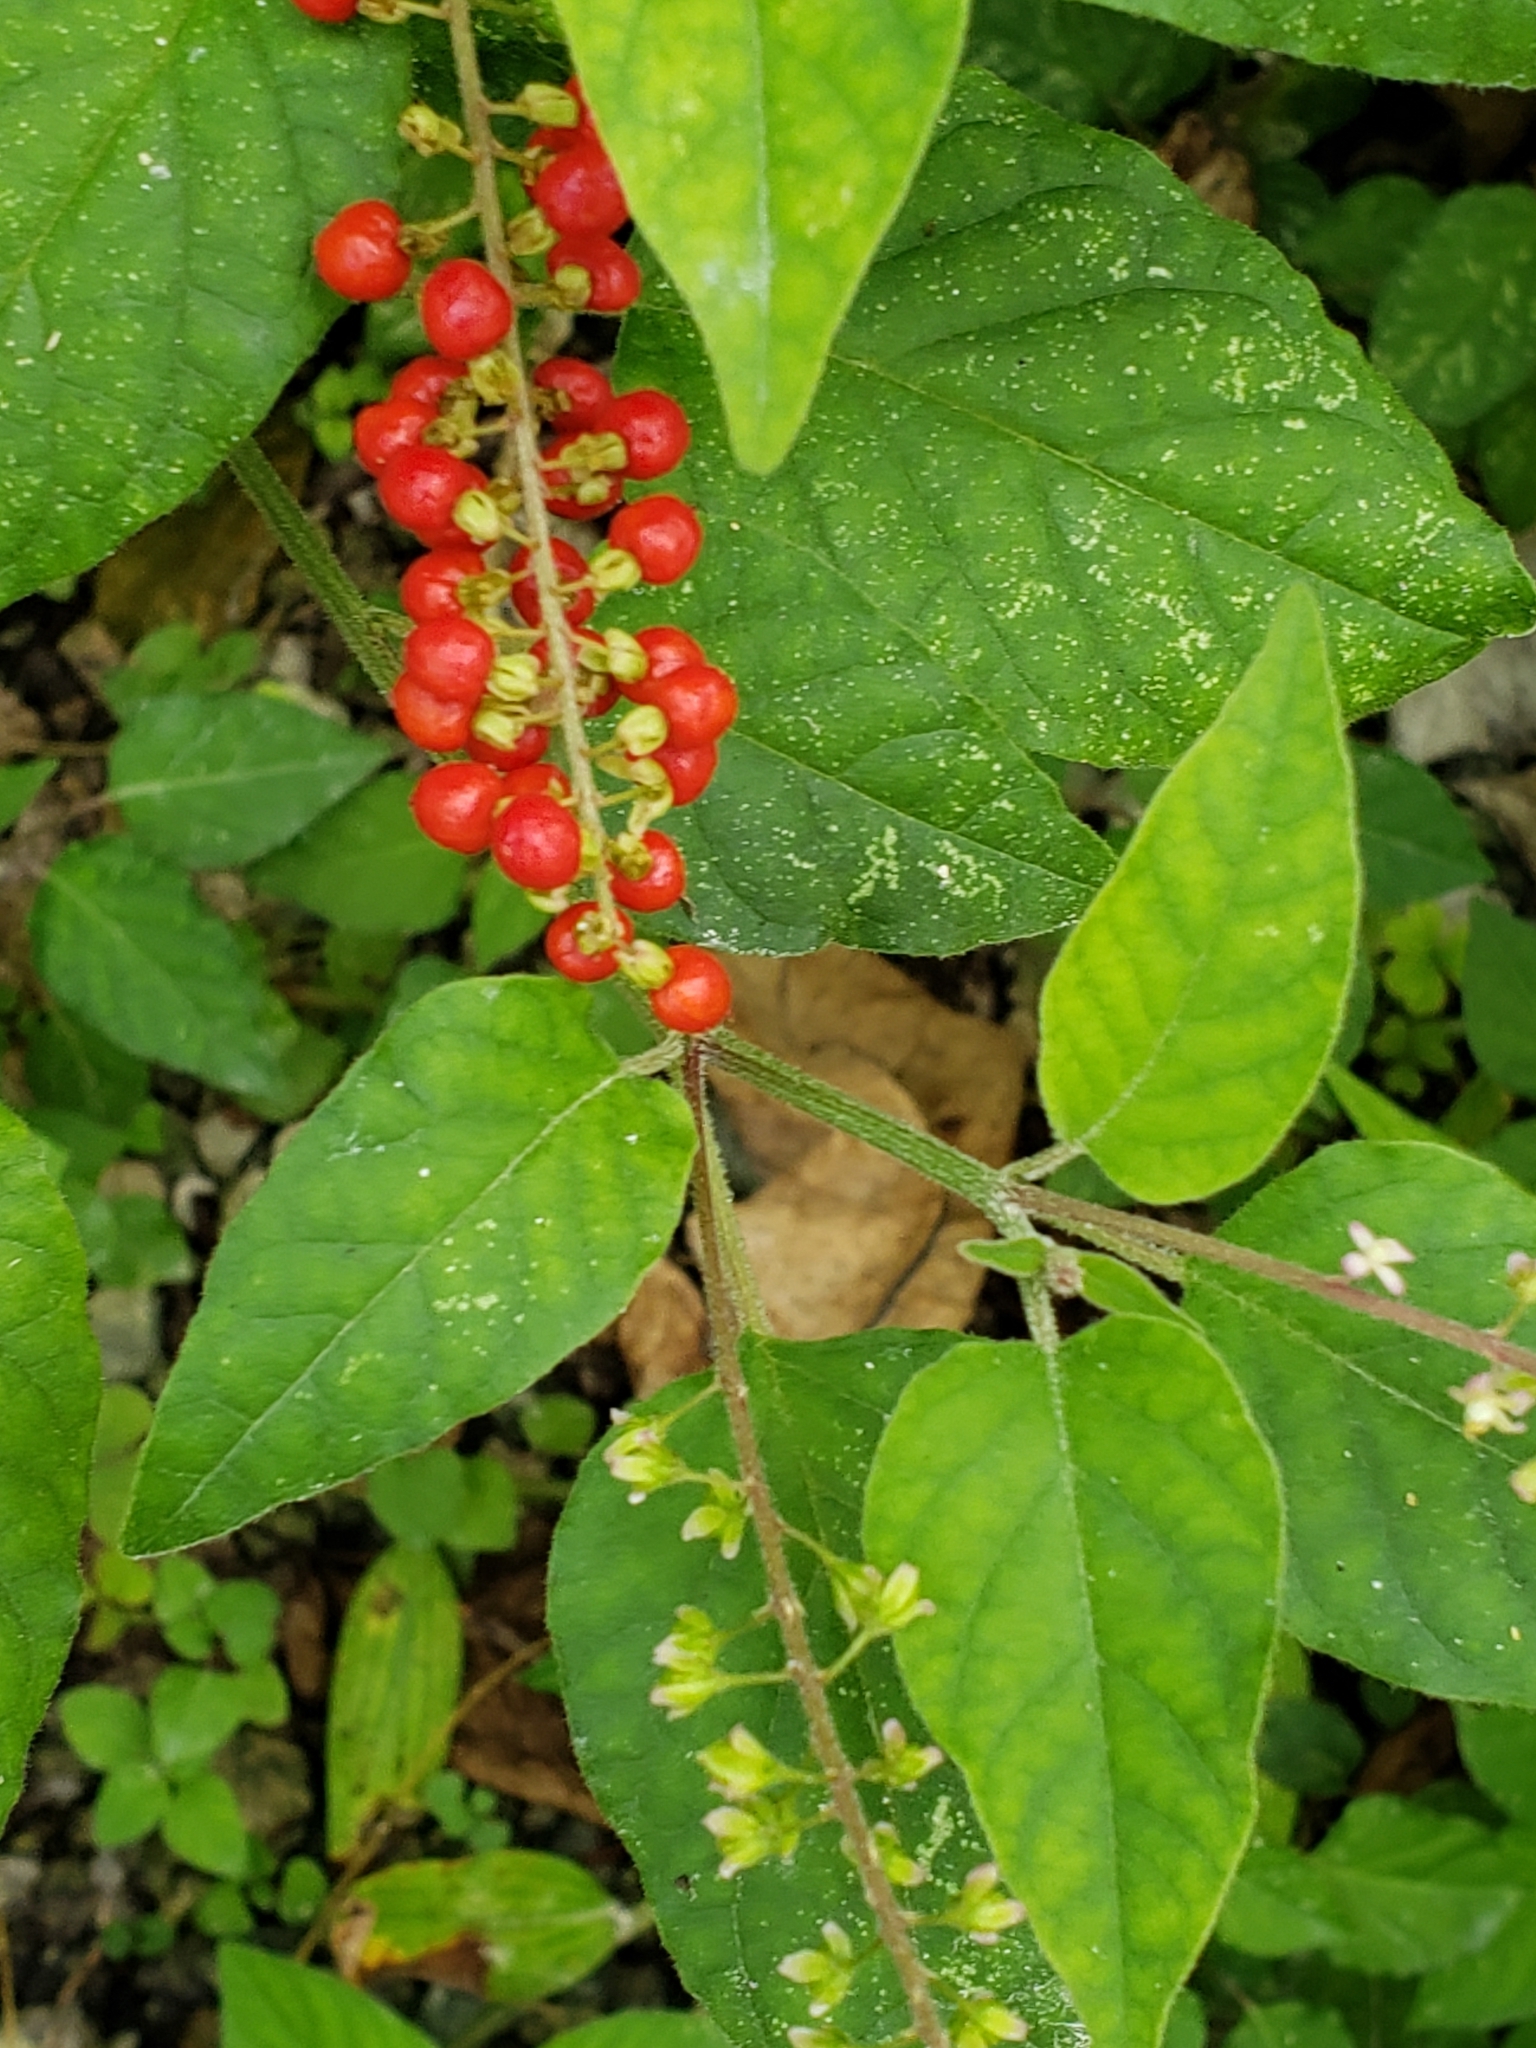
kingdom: Plantae
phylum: Tracheophyta
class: Magnoliopsida
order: Caryophyllales
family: Phytolaccaceae
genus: Rivina
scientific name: Rivina humilis
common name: Rougeplant
